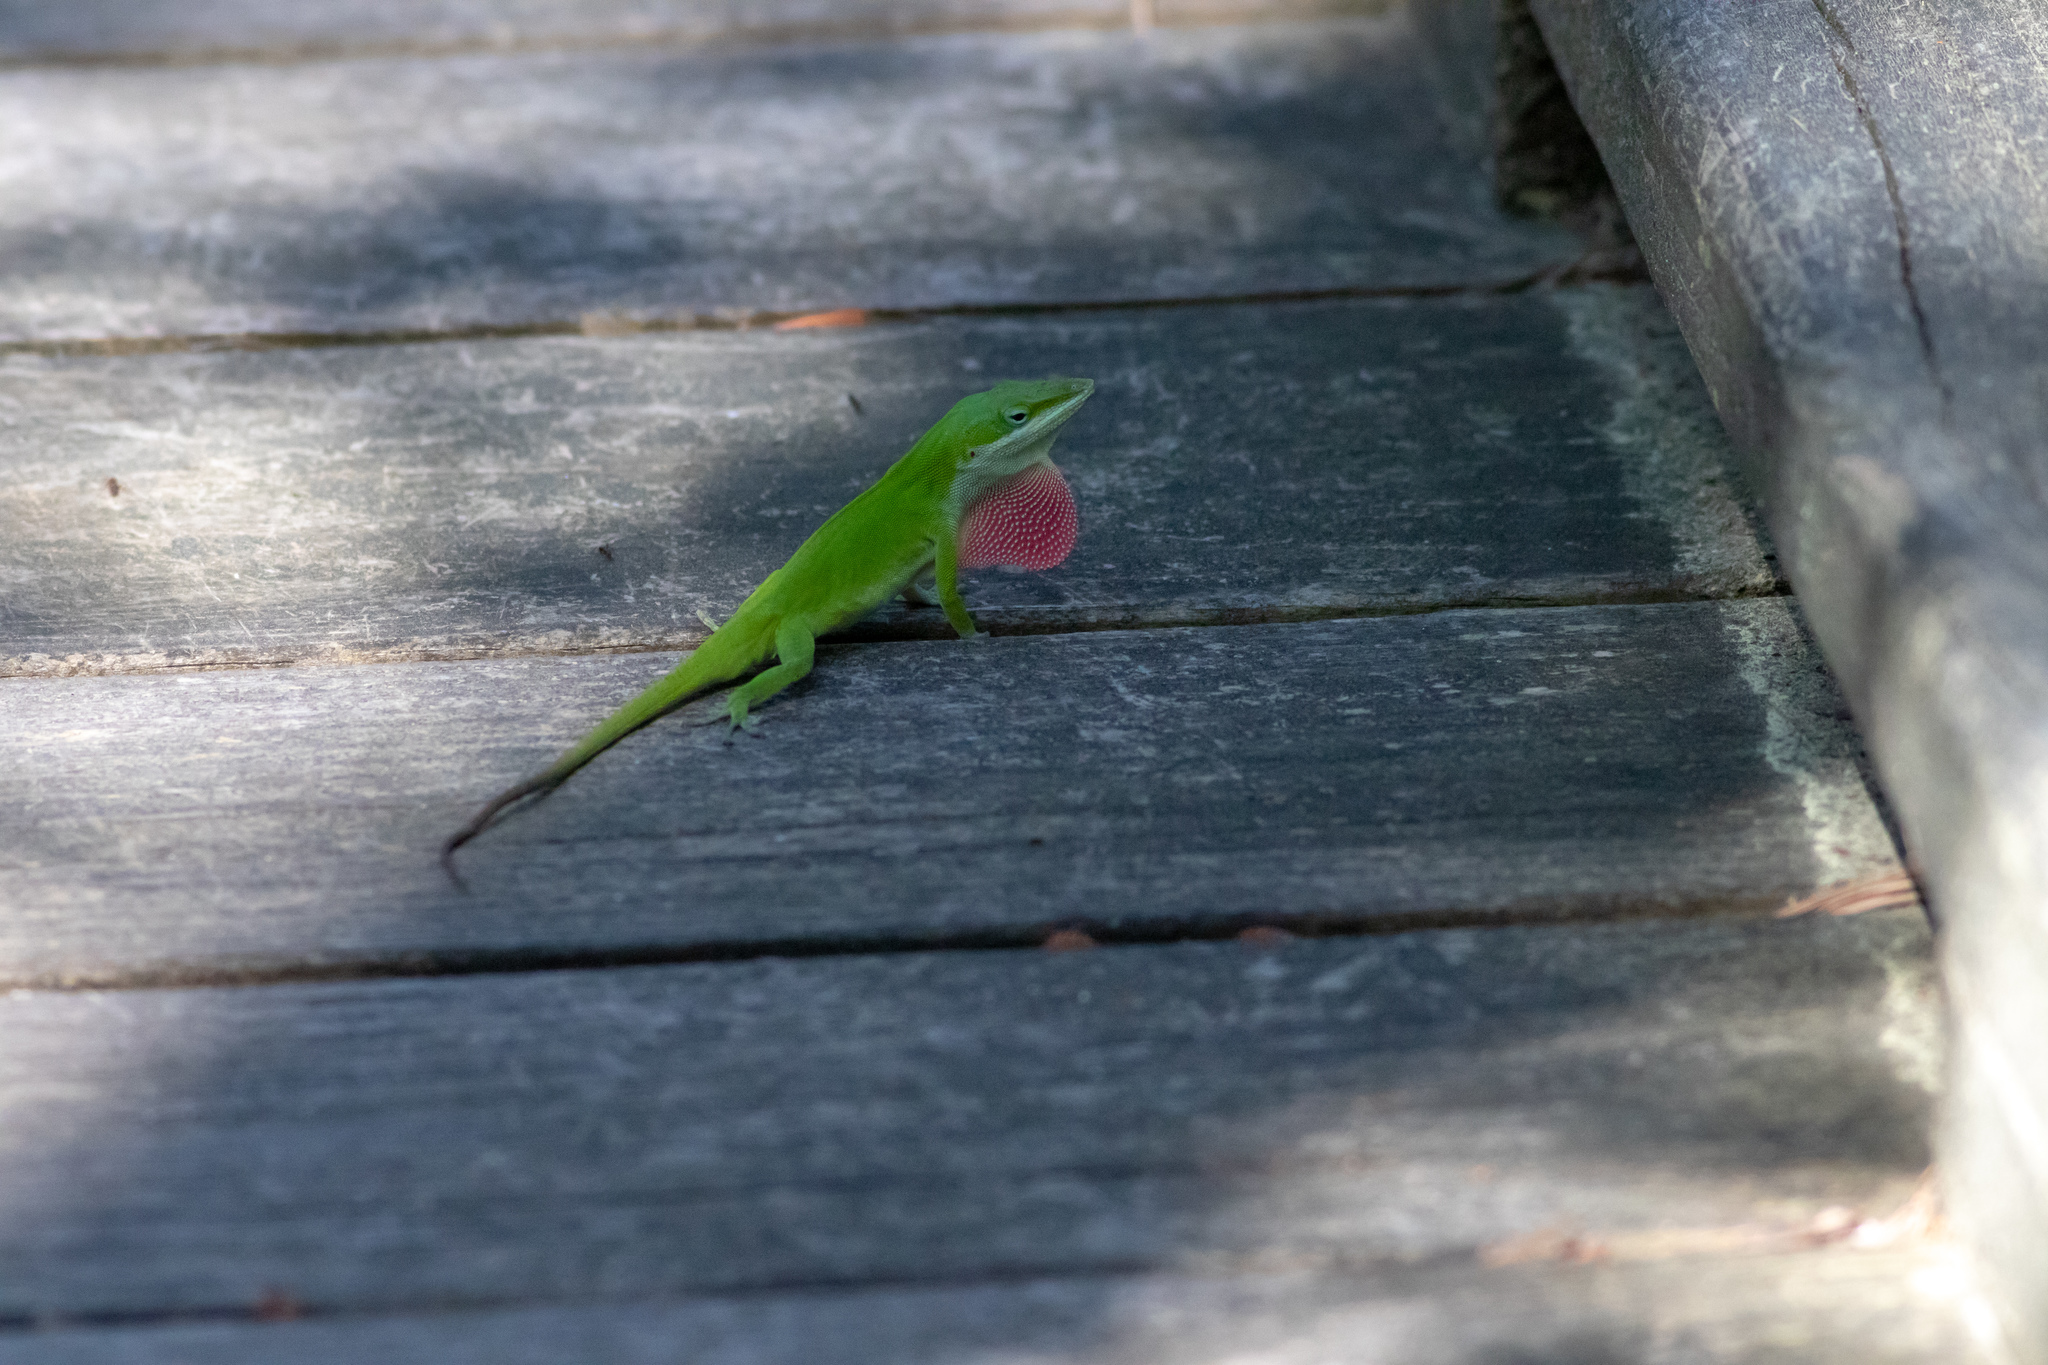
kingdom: Animalia
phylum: Chordata
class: Squamata
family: Dactyloidae
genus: Anolis
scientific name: Anolis carolinensis
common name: Green anole
